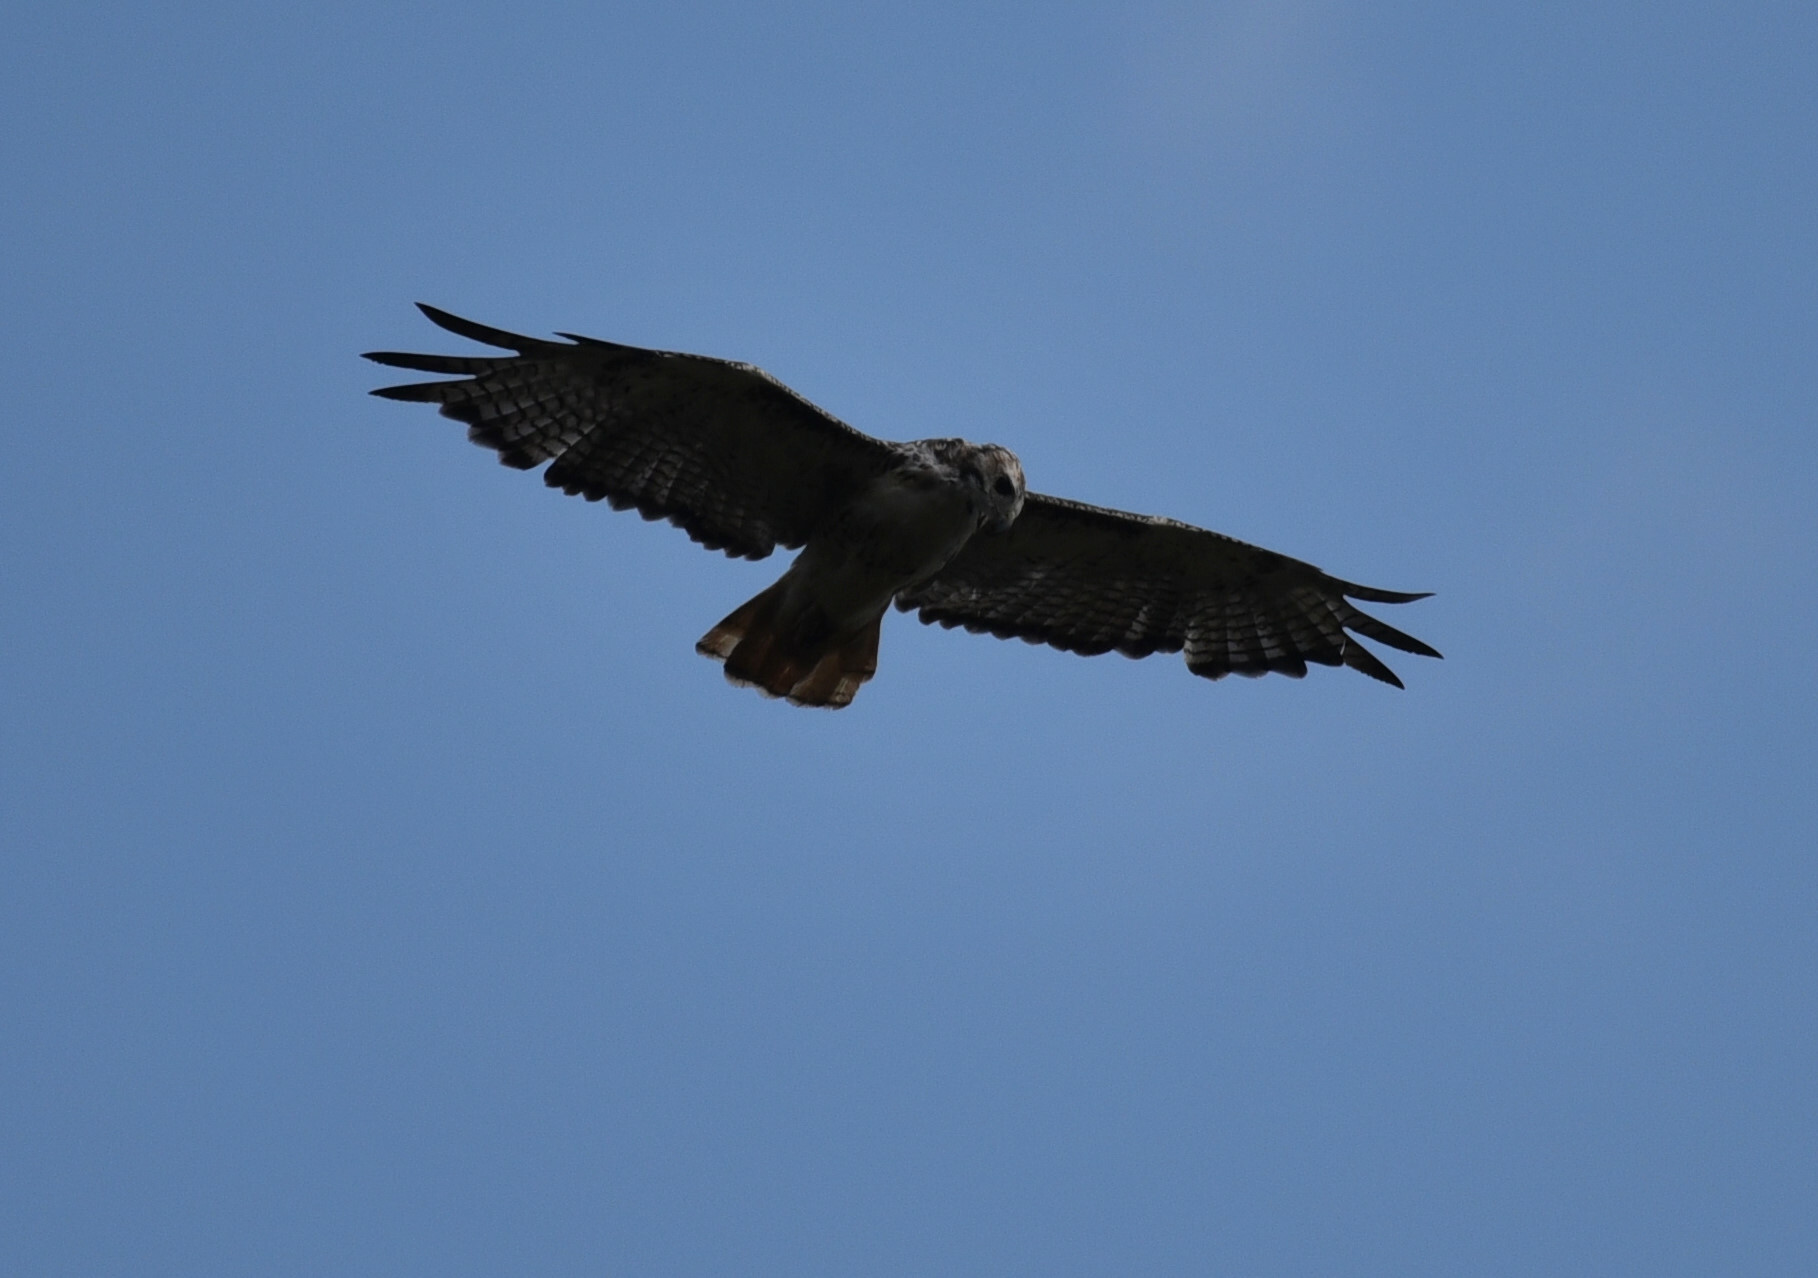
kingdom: Animalia
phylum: Chordata
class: Aves
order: Accipitriformes
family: Accipitridae
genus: Buteo
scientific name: Buteo jamaicensis
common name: Red-tailed hawk
